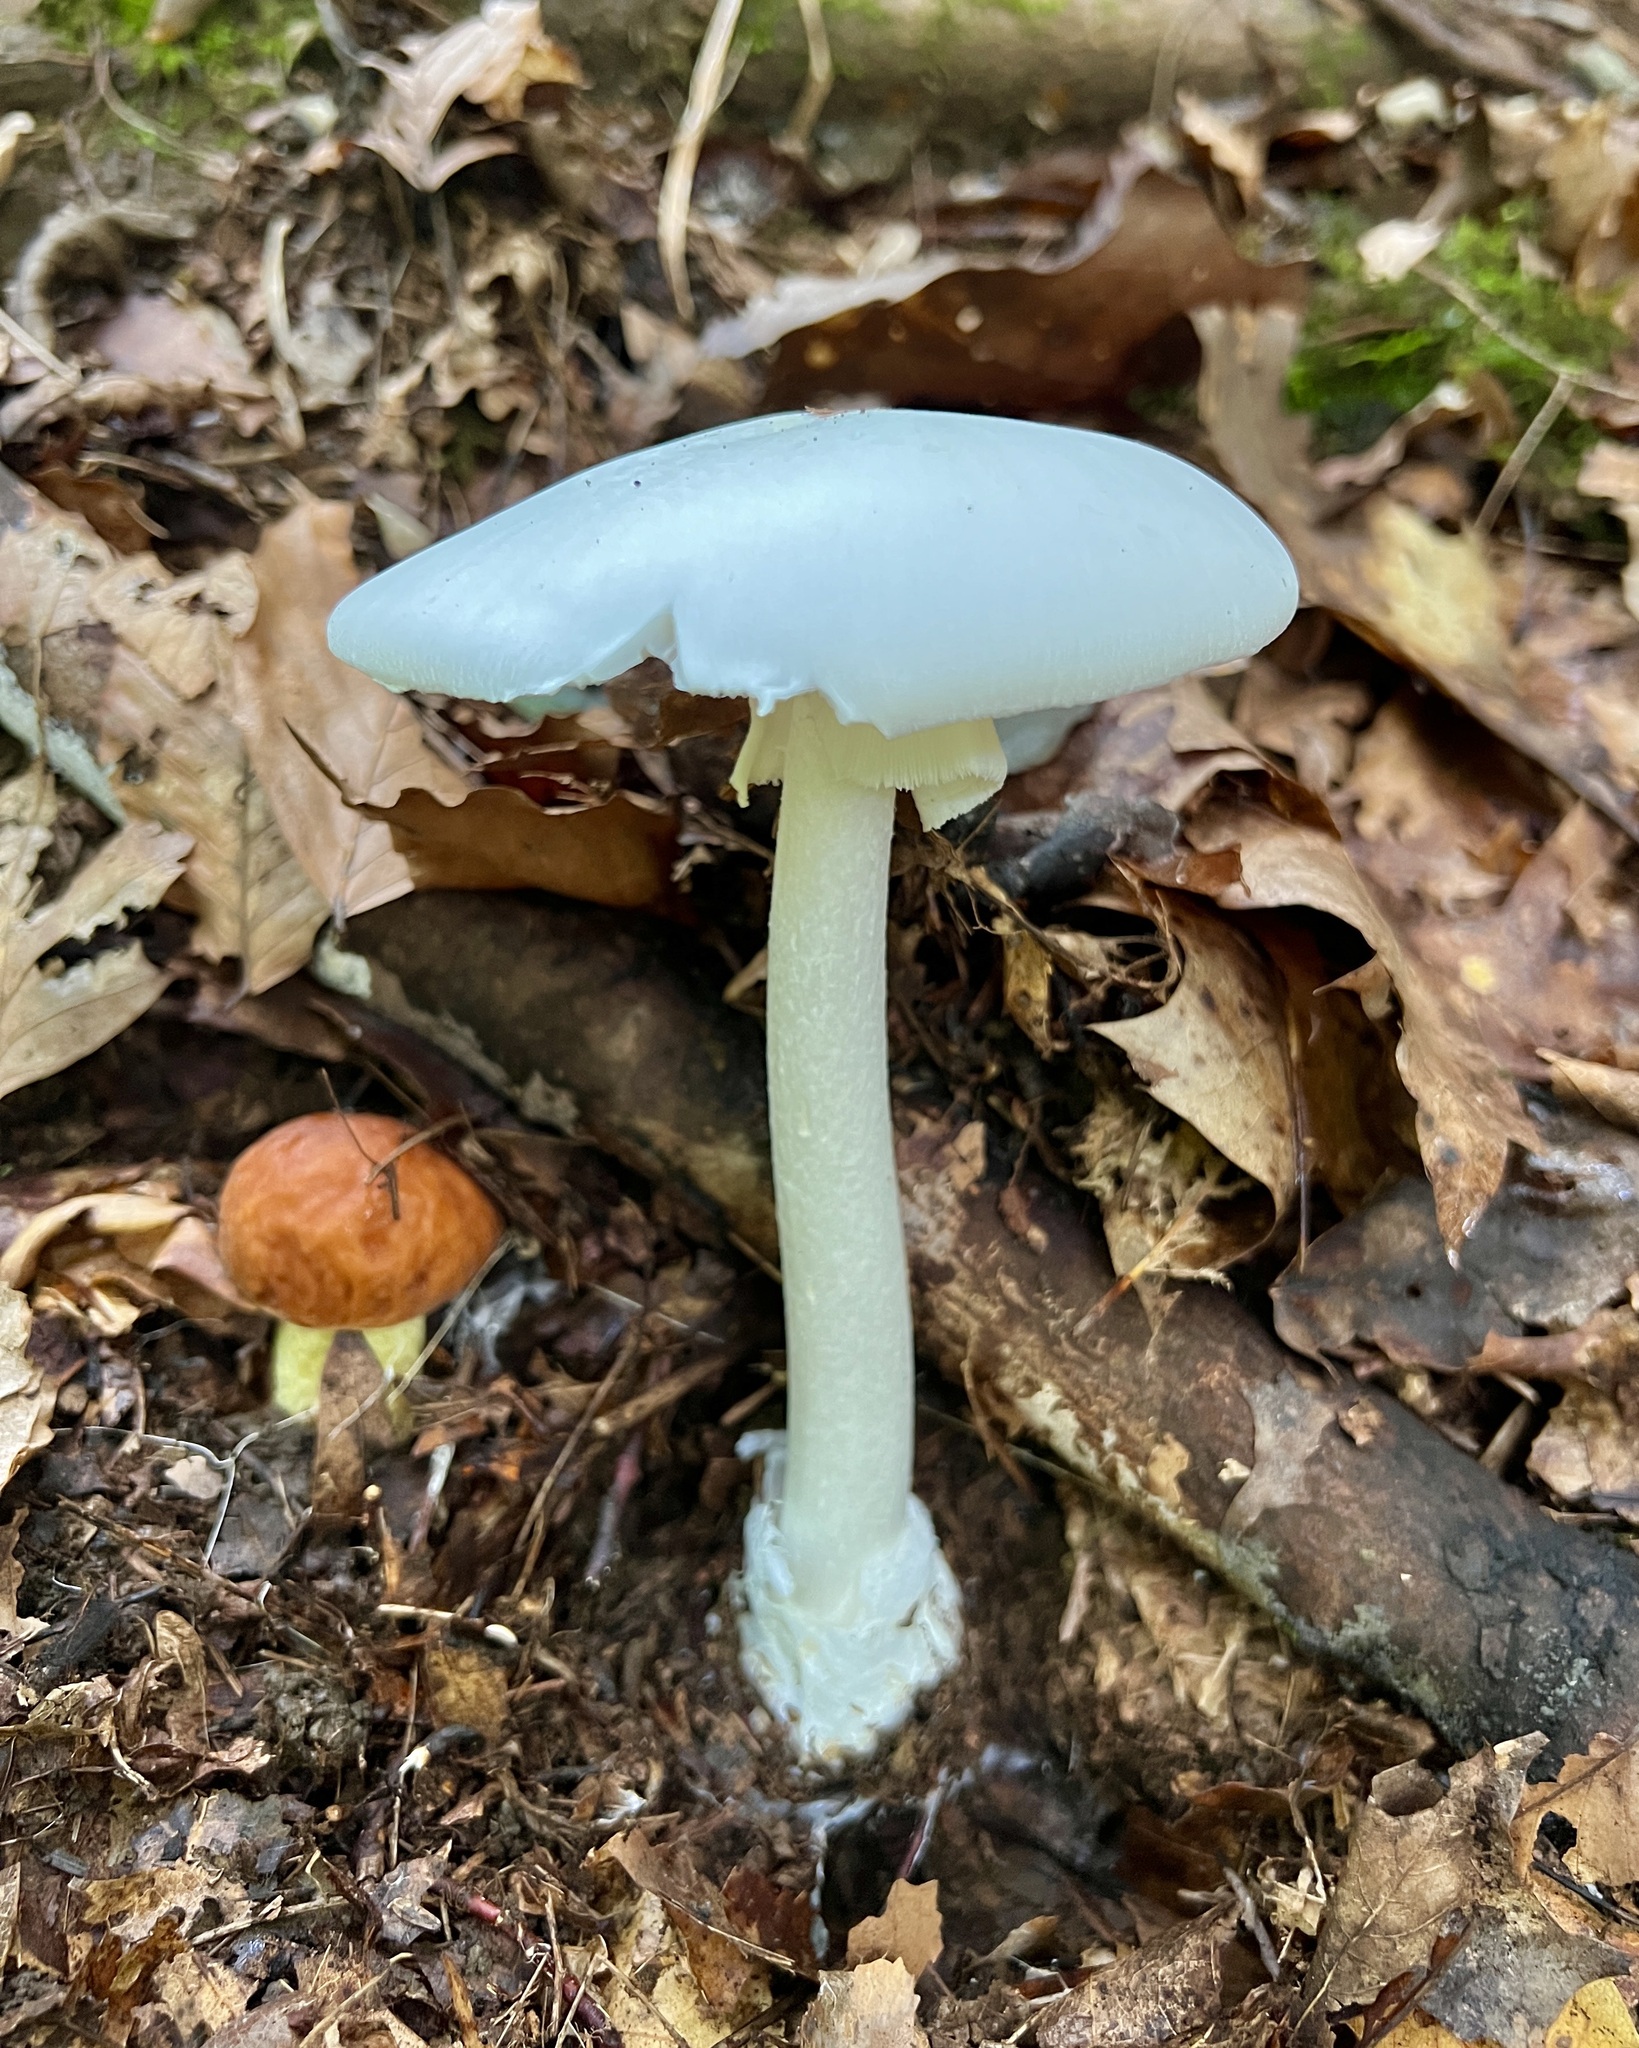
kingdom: Fungi
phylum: Basidiomycota
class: Agaricomycetes
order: Agaricales
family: Amanitaceae
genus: Amanita
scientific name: Amanita bisporigera
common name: Eastern north american destroying angel
